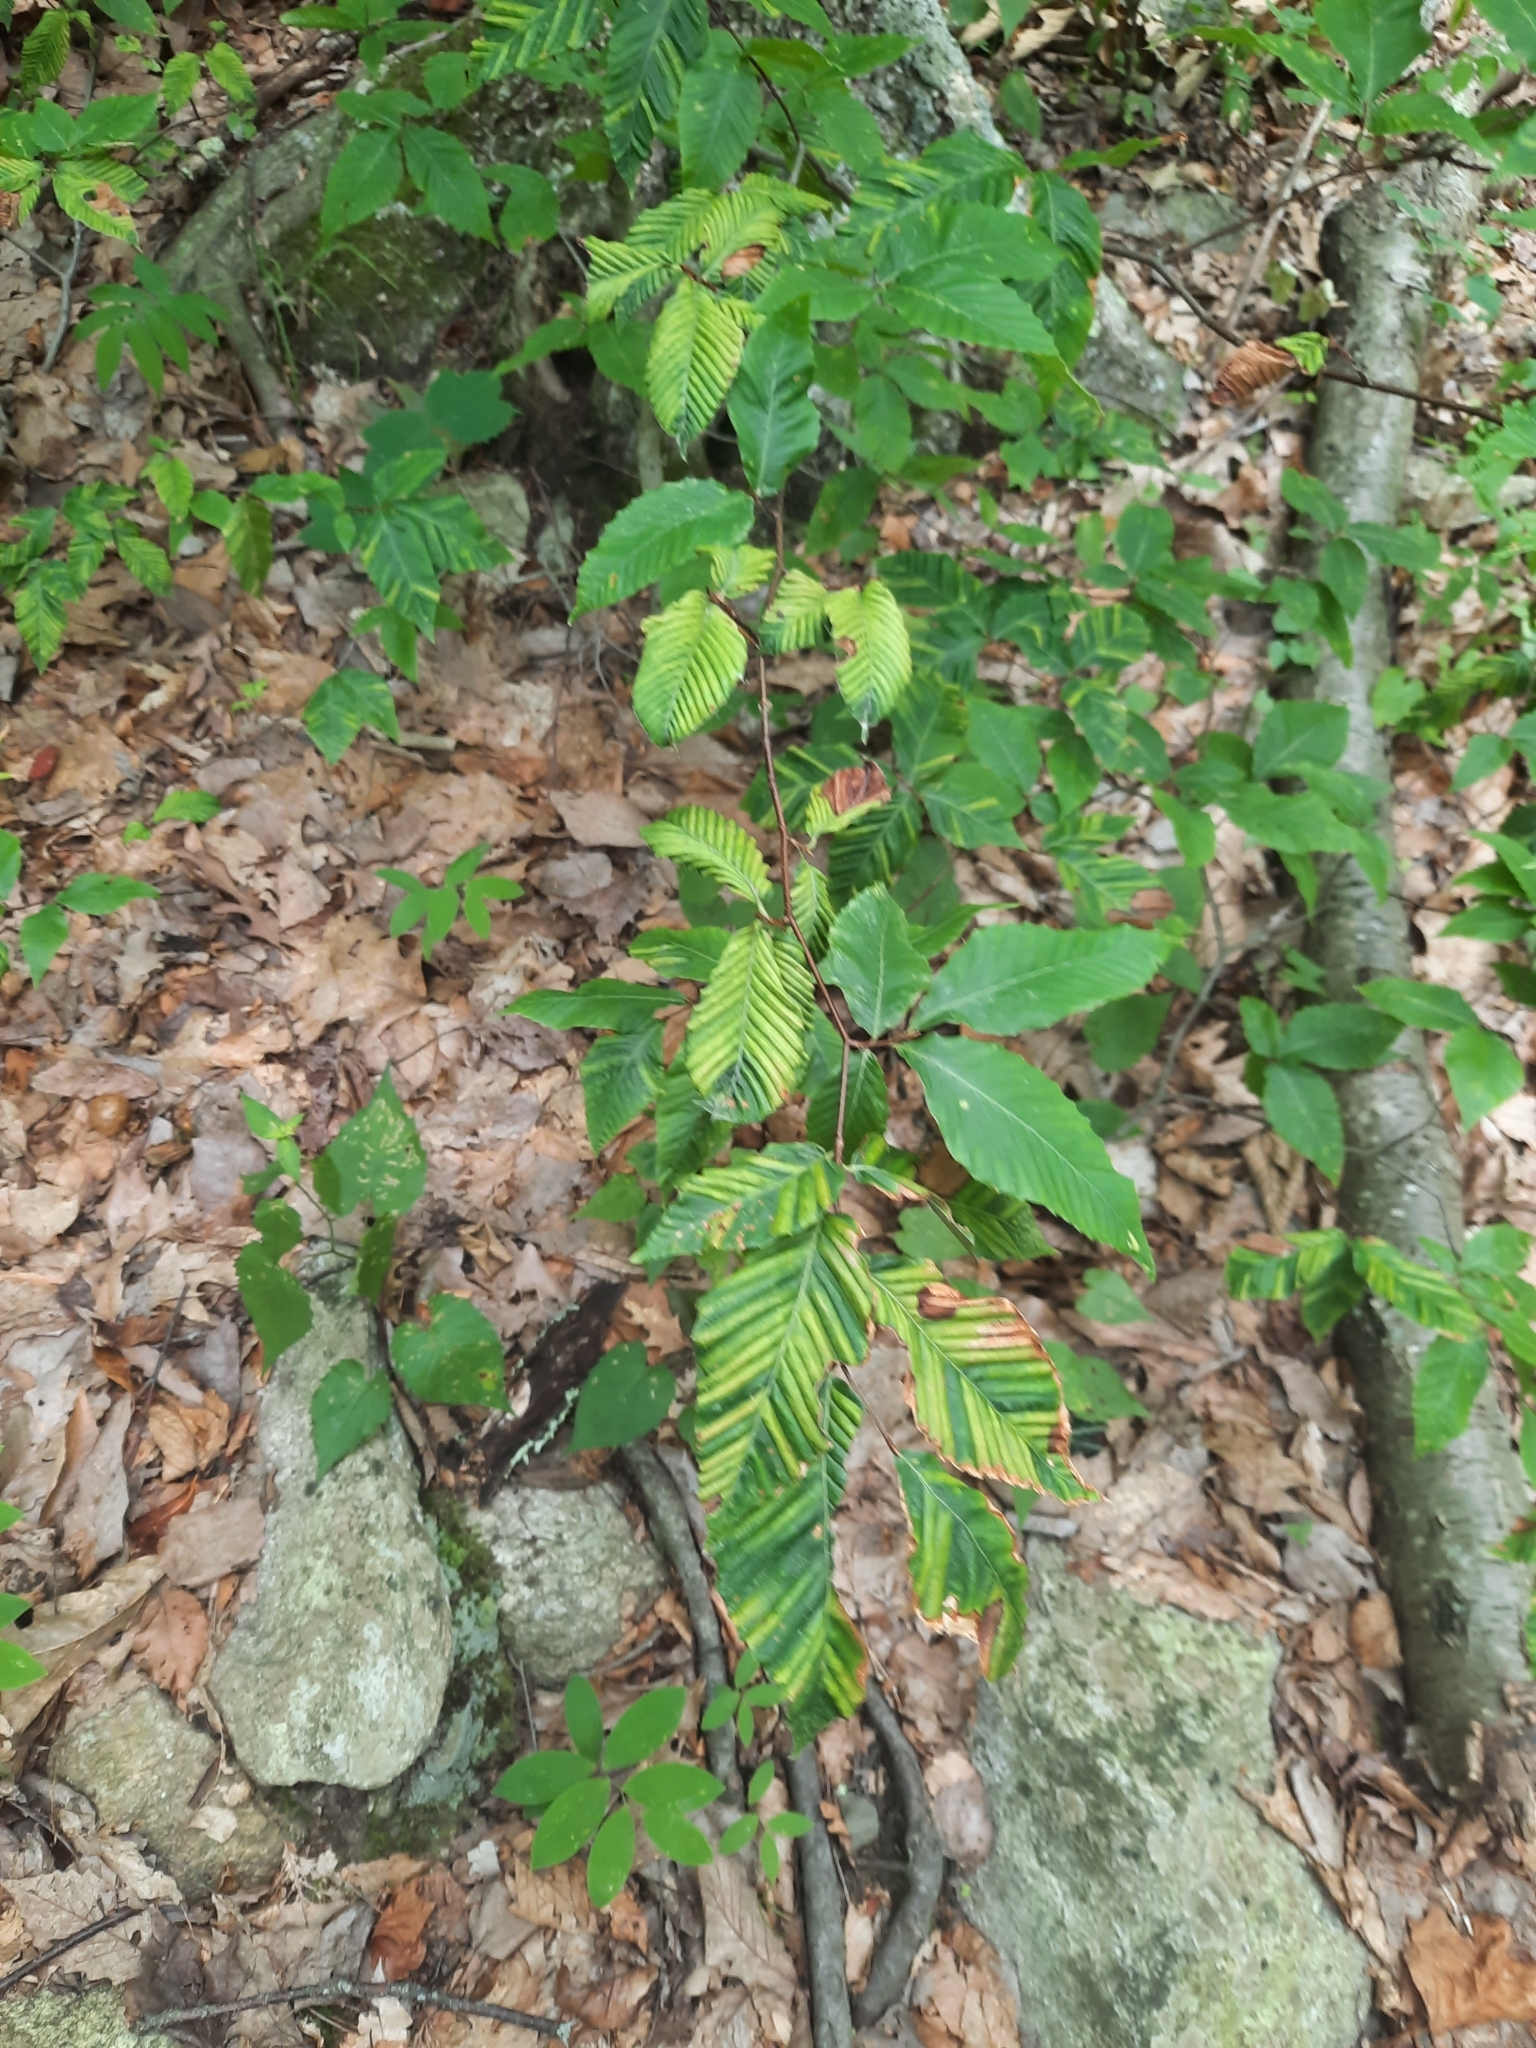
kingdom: Animalia
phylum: Nematoda
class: Chromadorea
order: Rhabditida
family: Anguinidae
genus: Litylenchus
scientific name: Litylenchus crenatae
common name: Beech leaf disease
